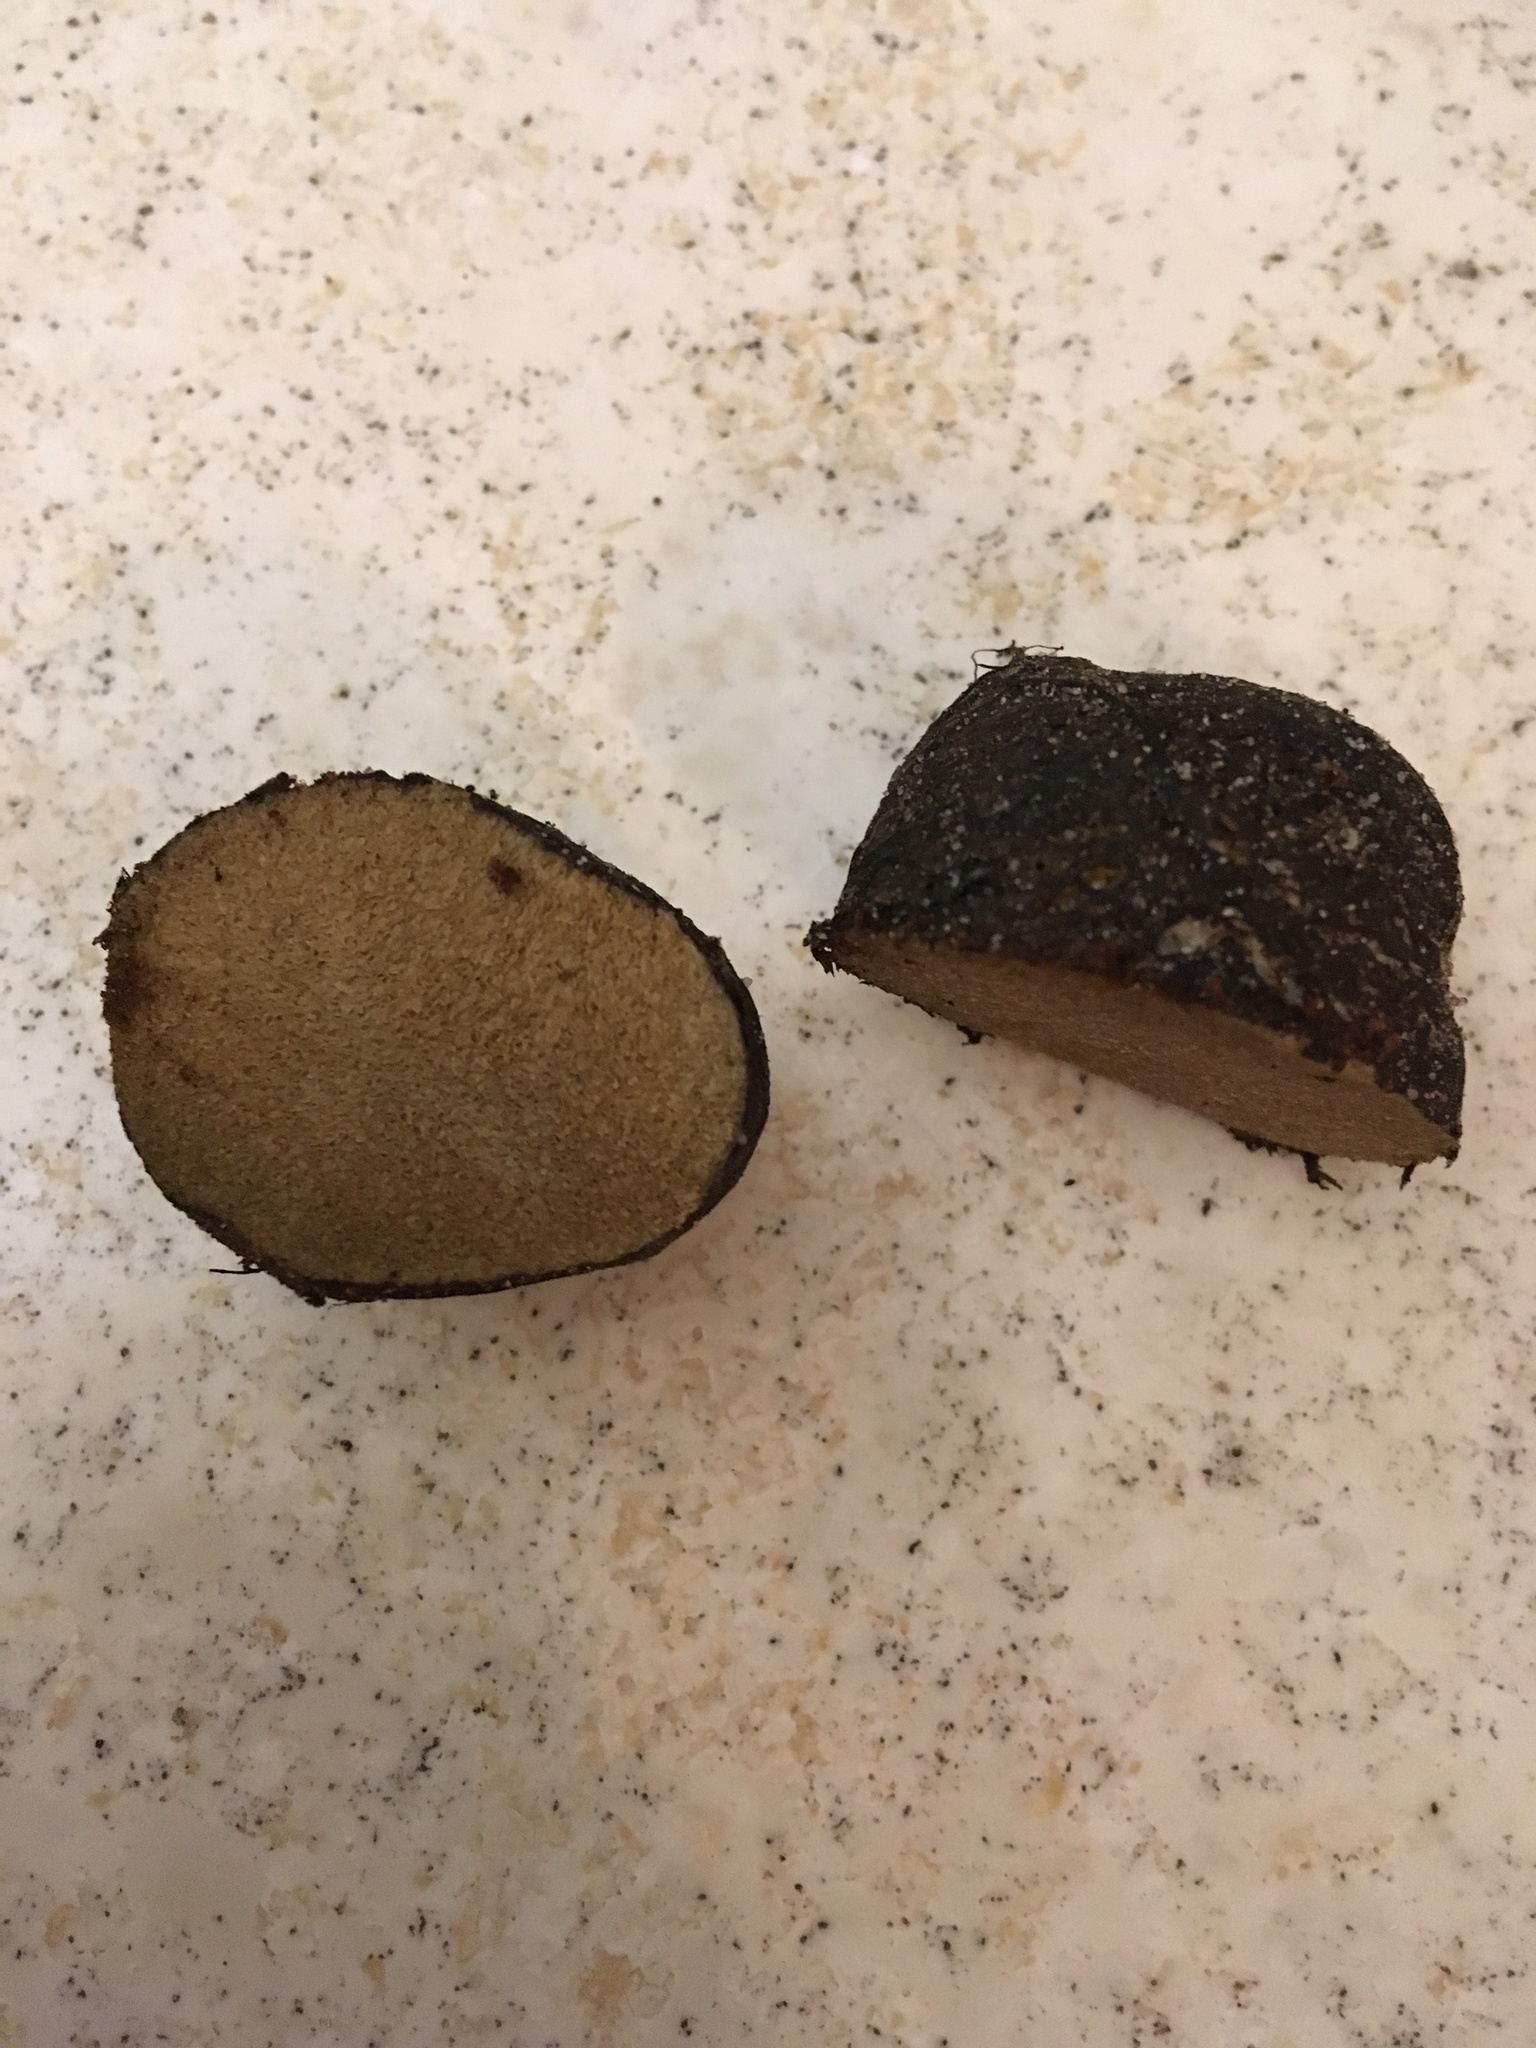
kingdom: Fungi
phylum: Basidiomycota
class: Agaricomycetes
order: Boletales
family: Rhizopogonaceae
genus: Rhizopogon
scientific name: Rhizopogon fuscorubens
